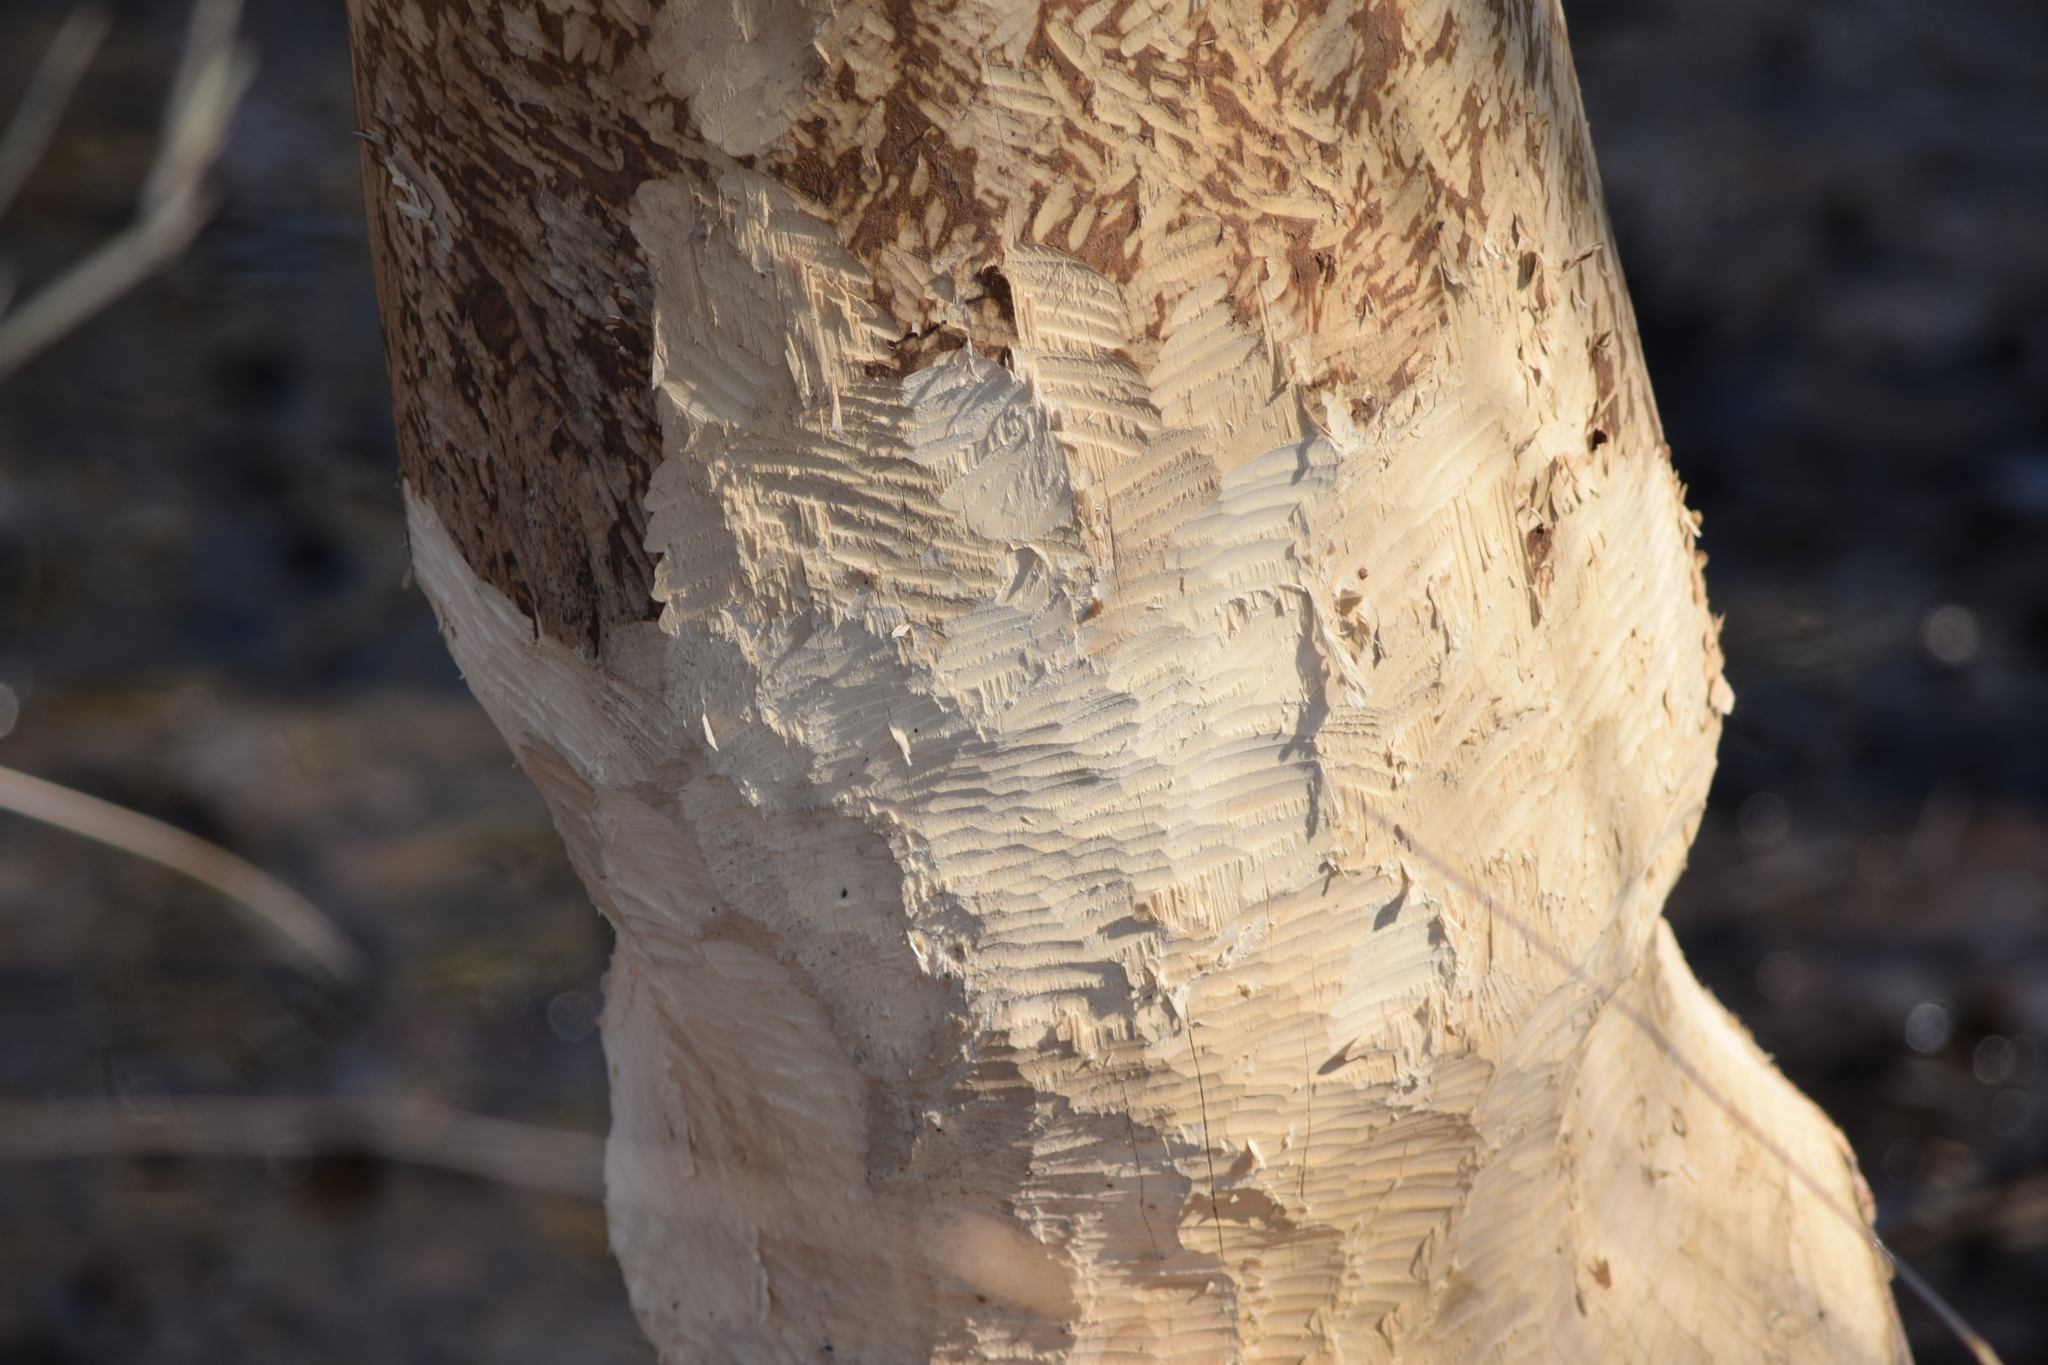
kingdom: Animalia
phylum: Chordata
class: Mammalia
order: Rodentia
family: Castoridae
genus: Castor
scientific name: Castor canadensis
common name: American beaver
